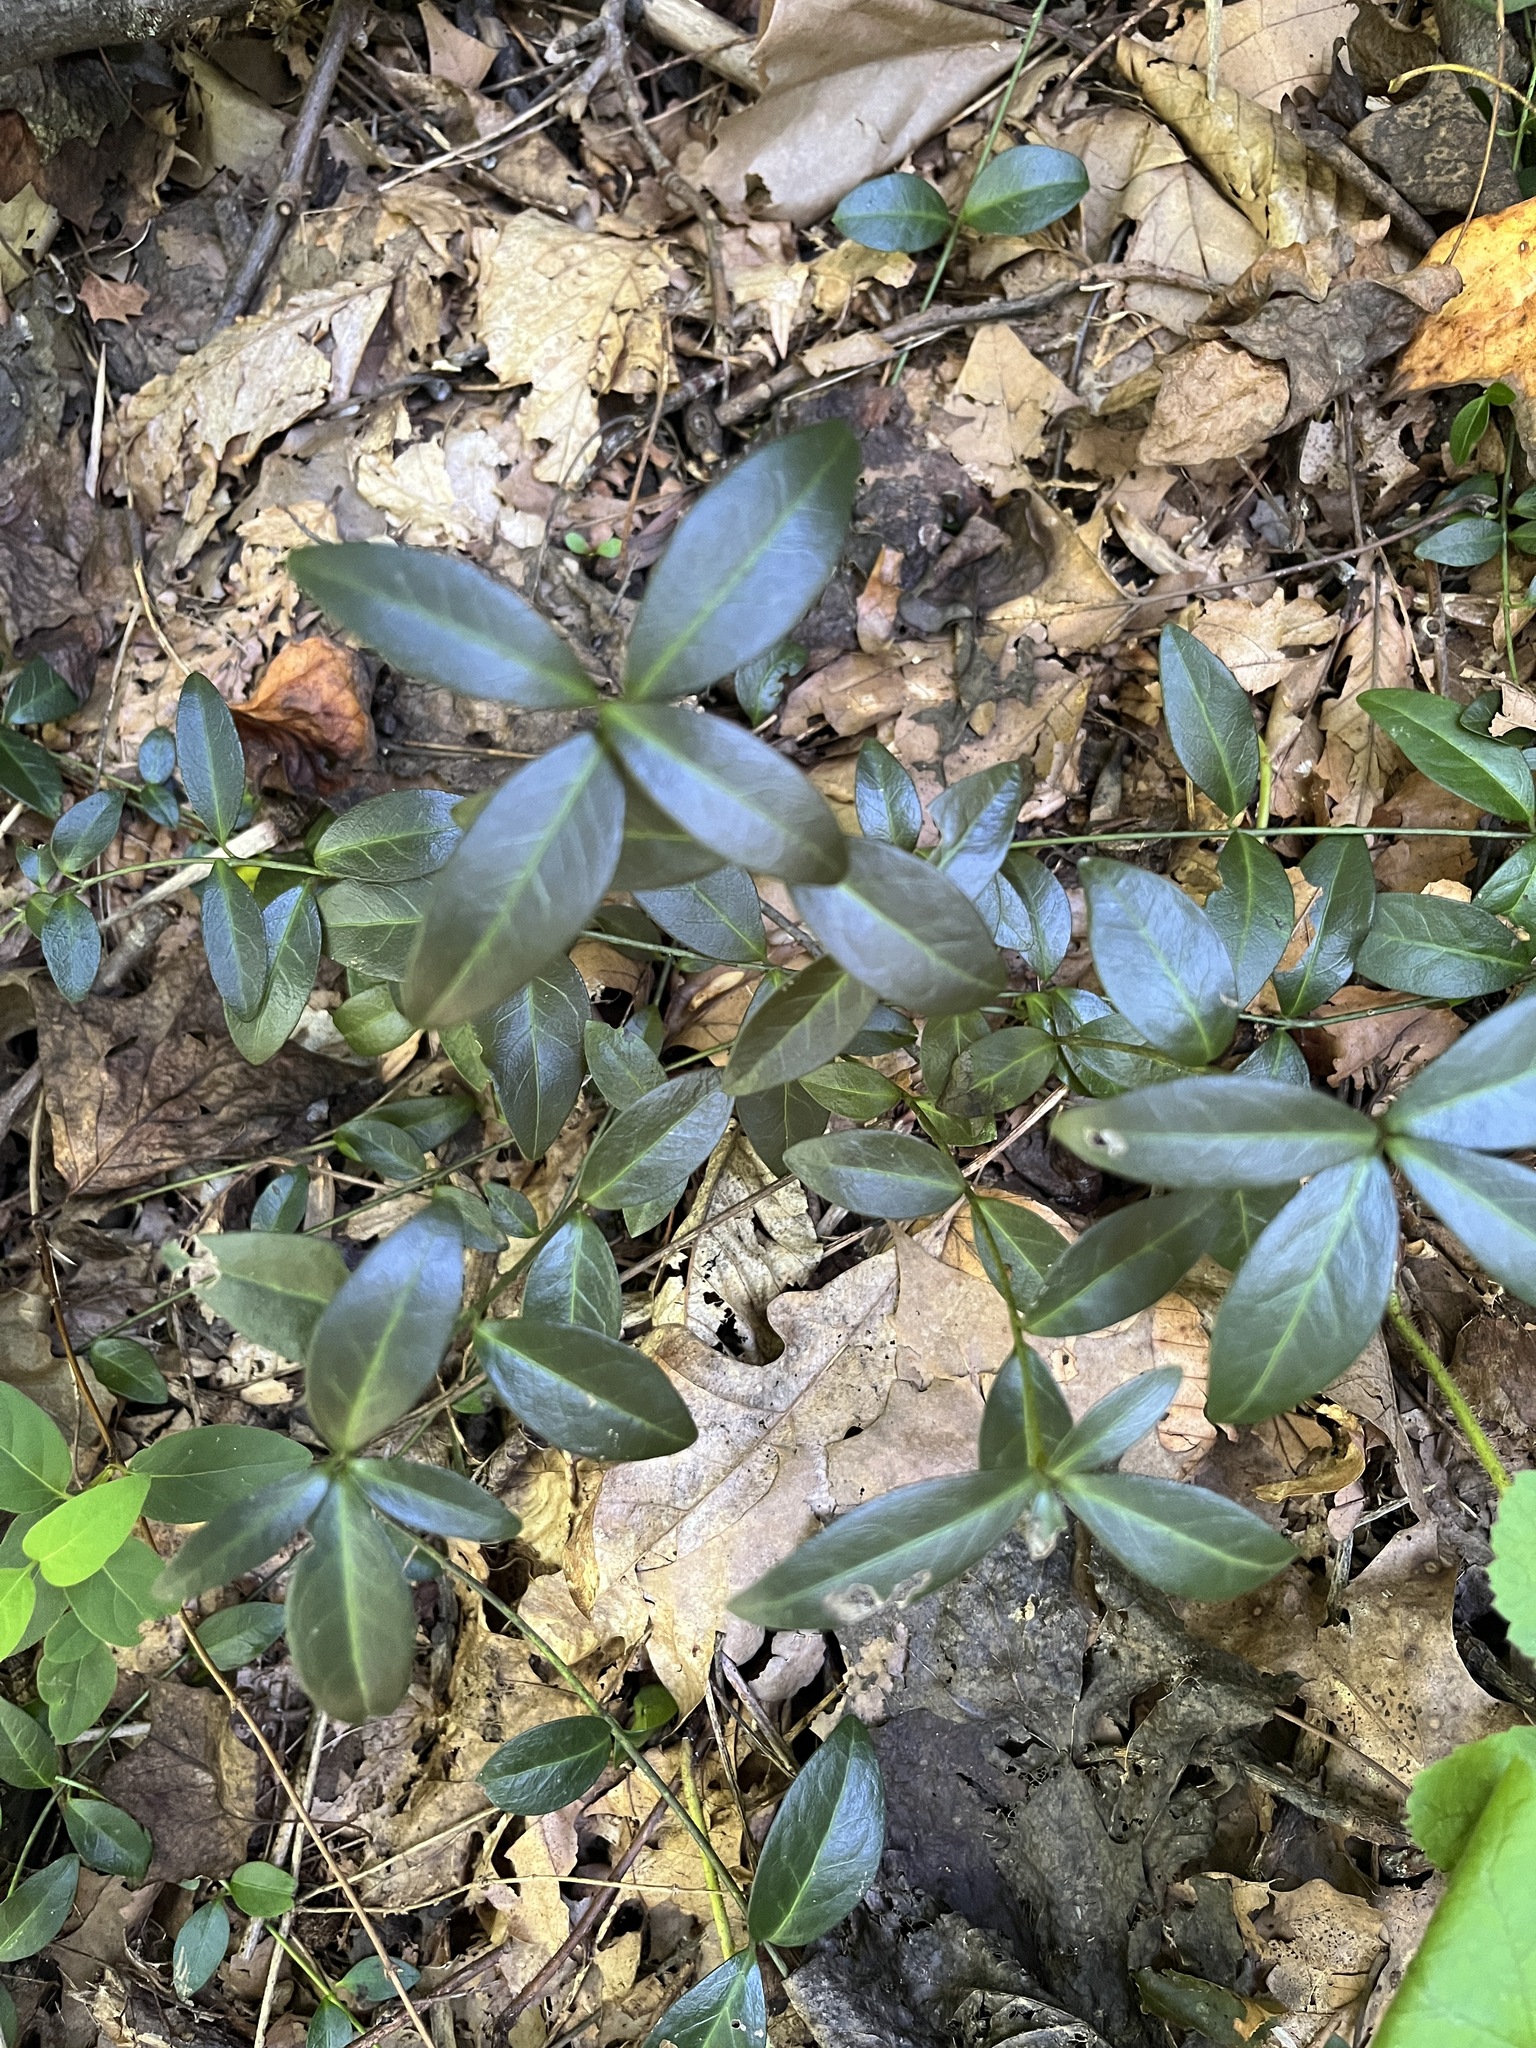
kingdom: Plantae
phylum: Tracheophyta
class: Magnoliopsida
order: Gentianales
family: Apocynaceae
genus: Vinca
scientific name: Vinca minor
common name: Lesser periwinkle
